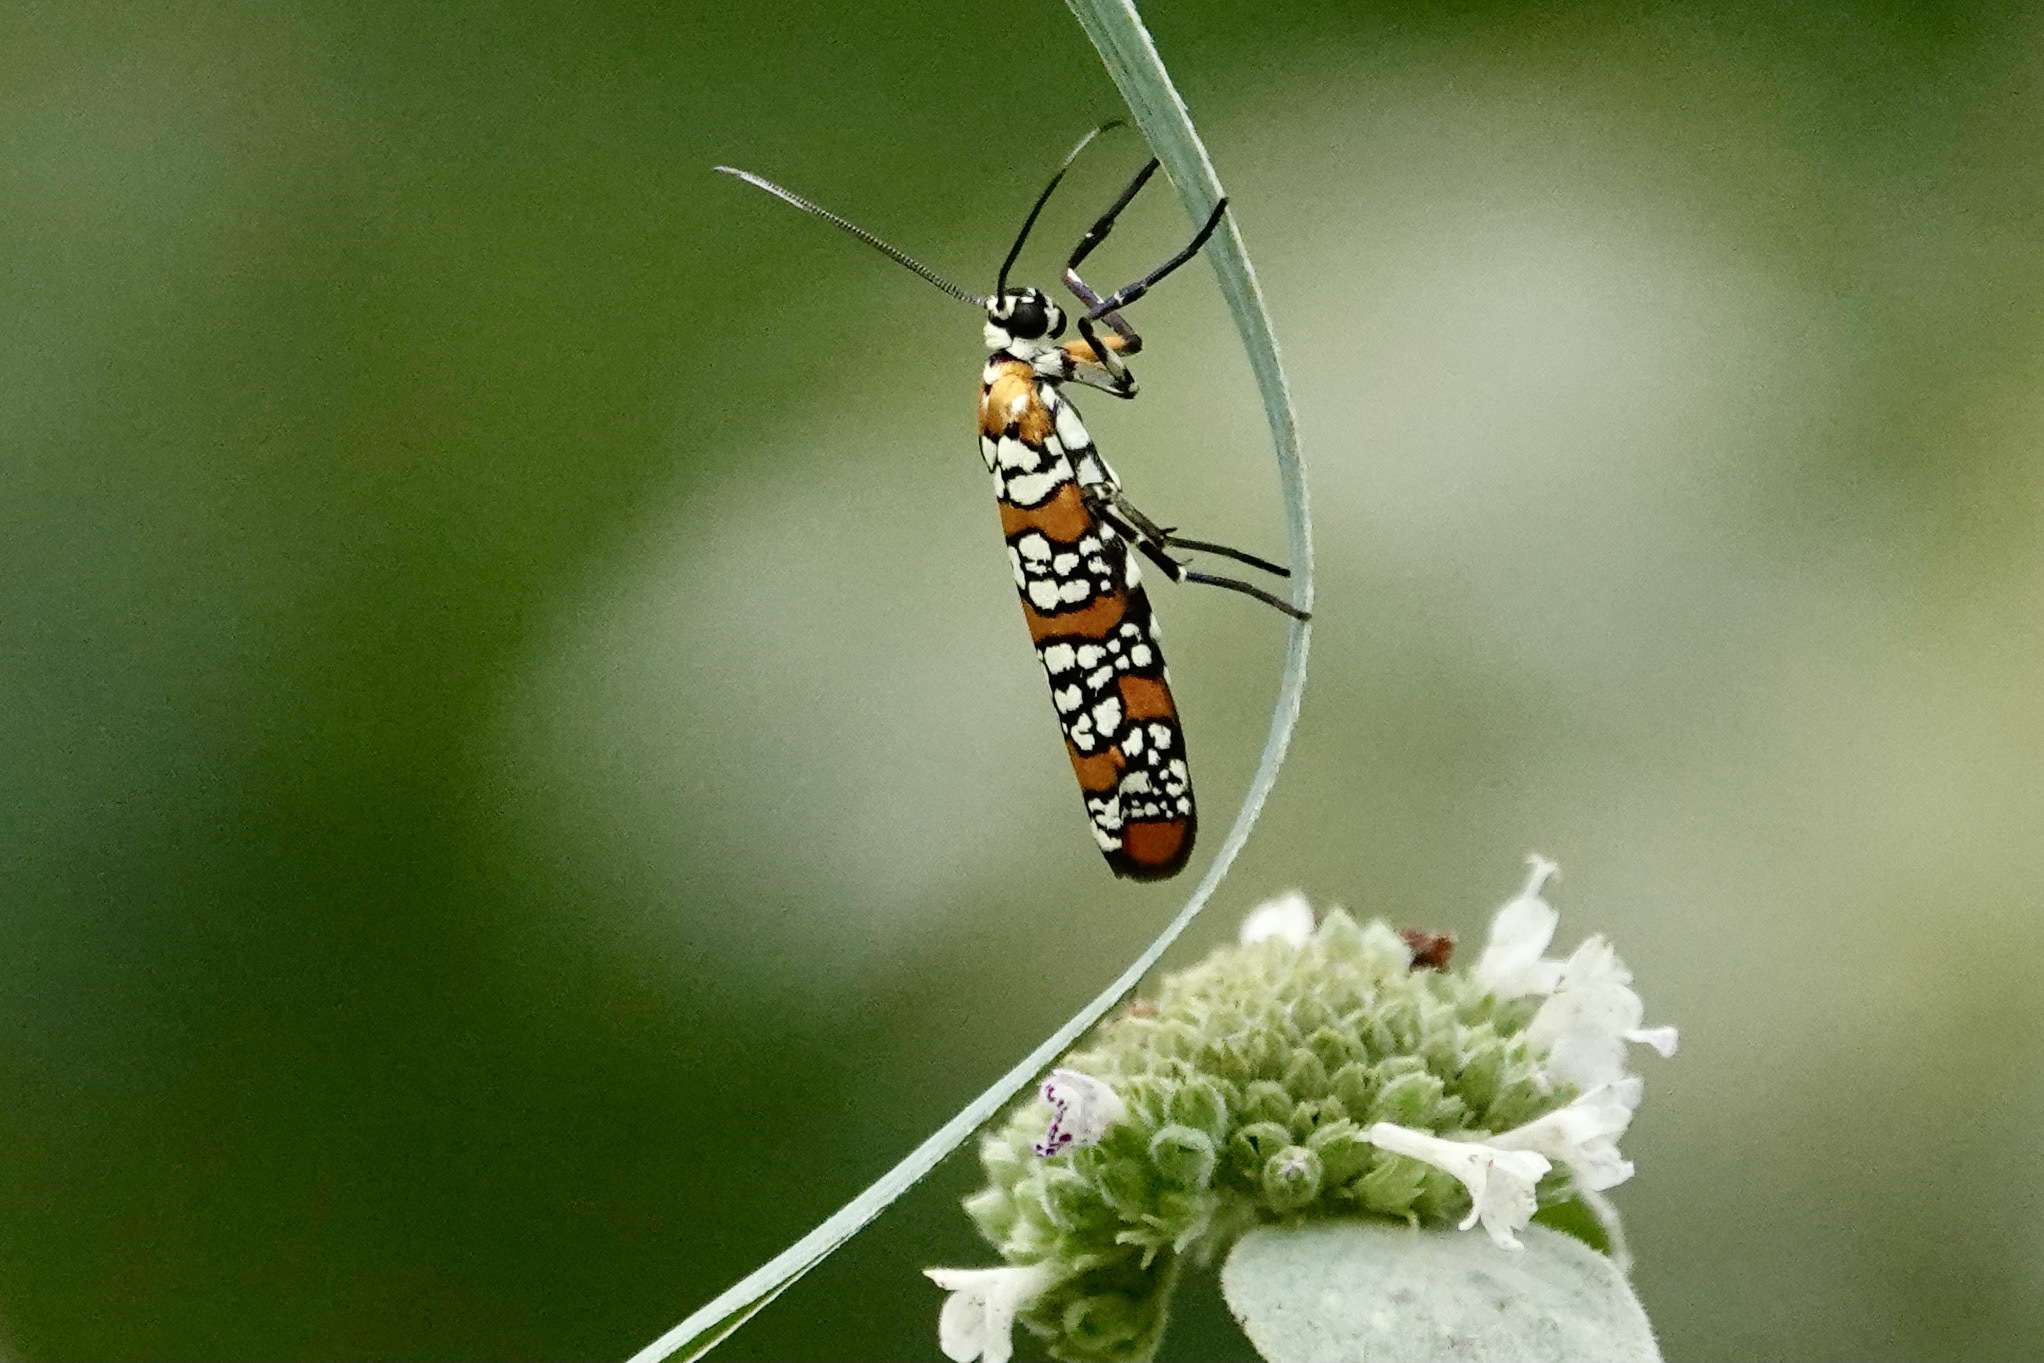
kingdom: Animalia
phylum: Arthropoda
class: Insecta
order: Lepidoptera
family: Attevidae
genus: Atteva
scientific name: Atteva punctella
